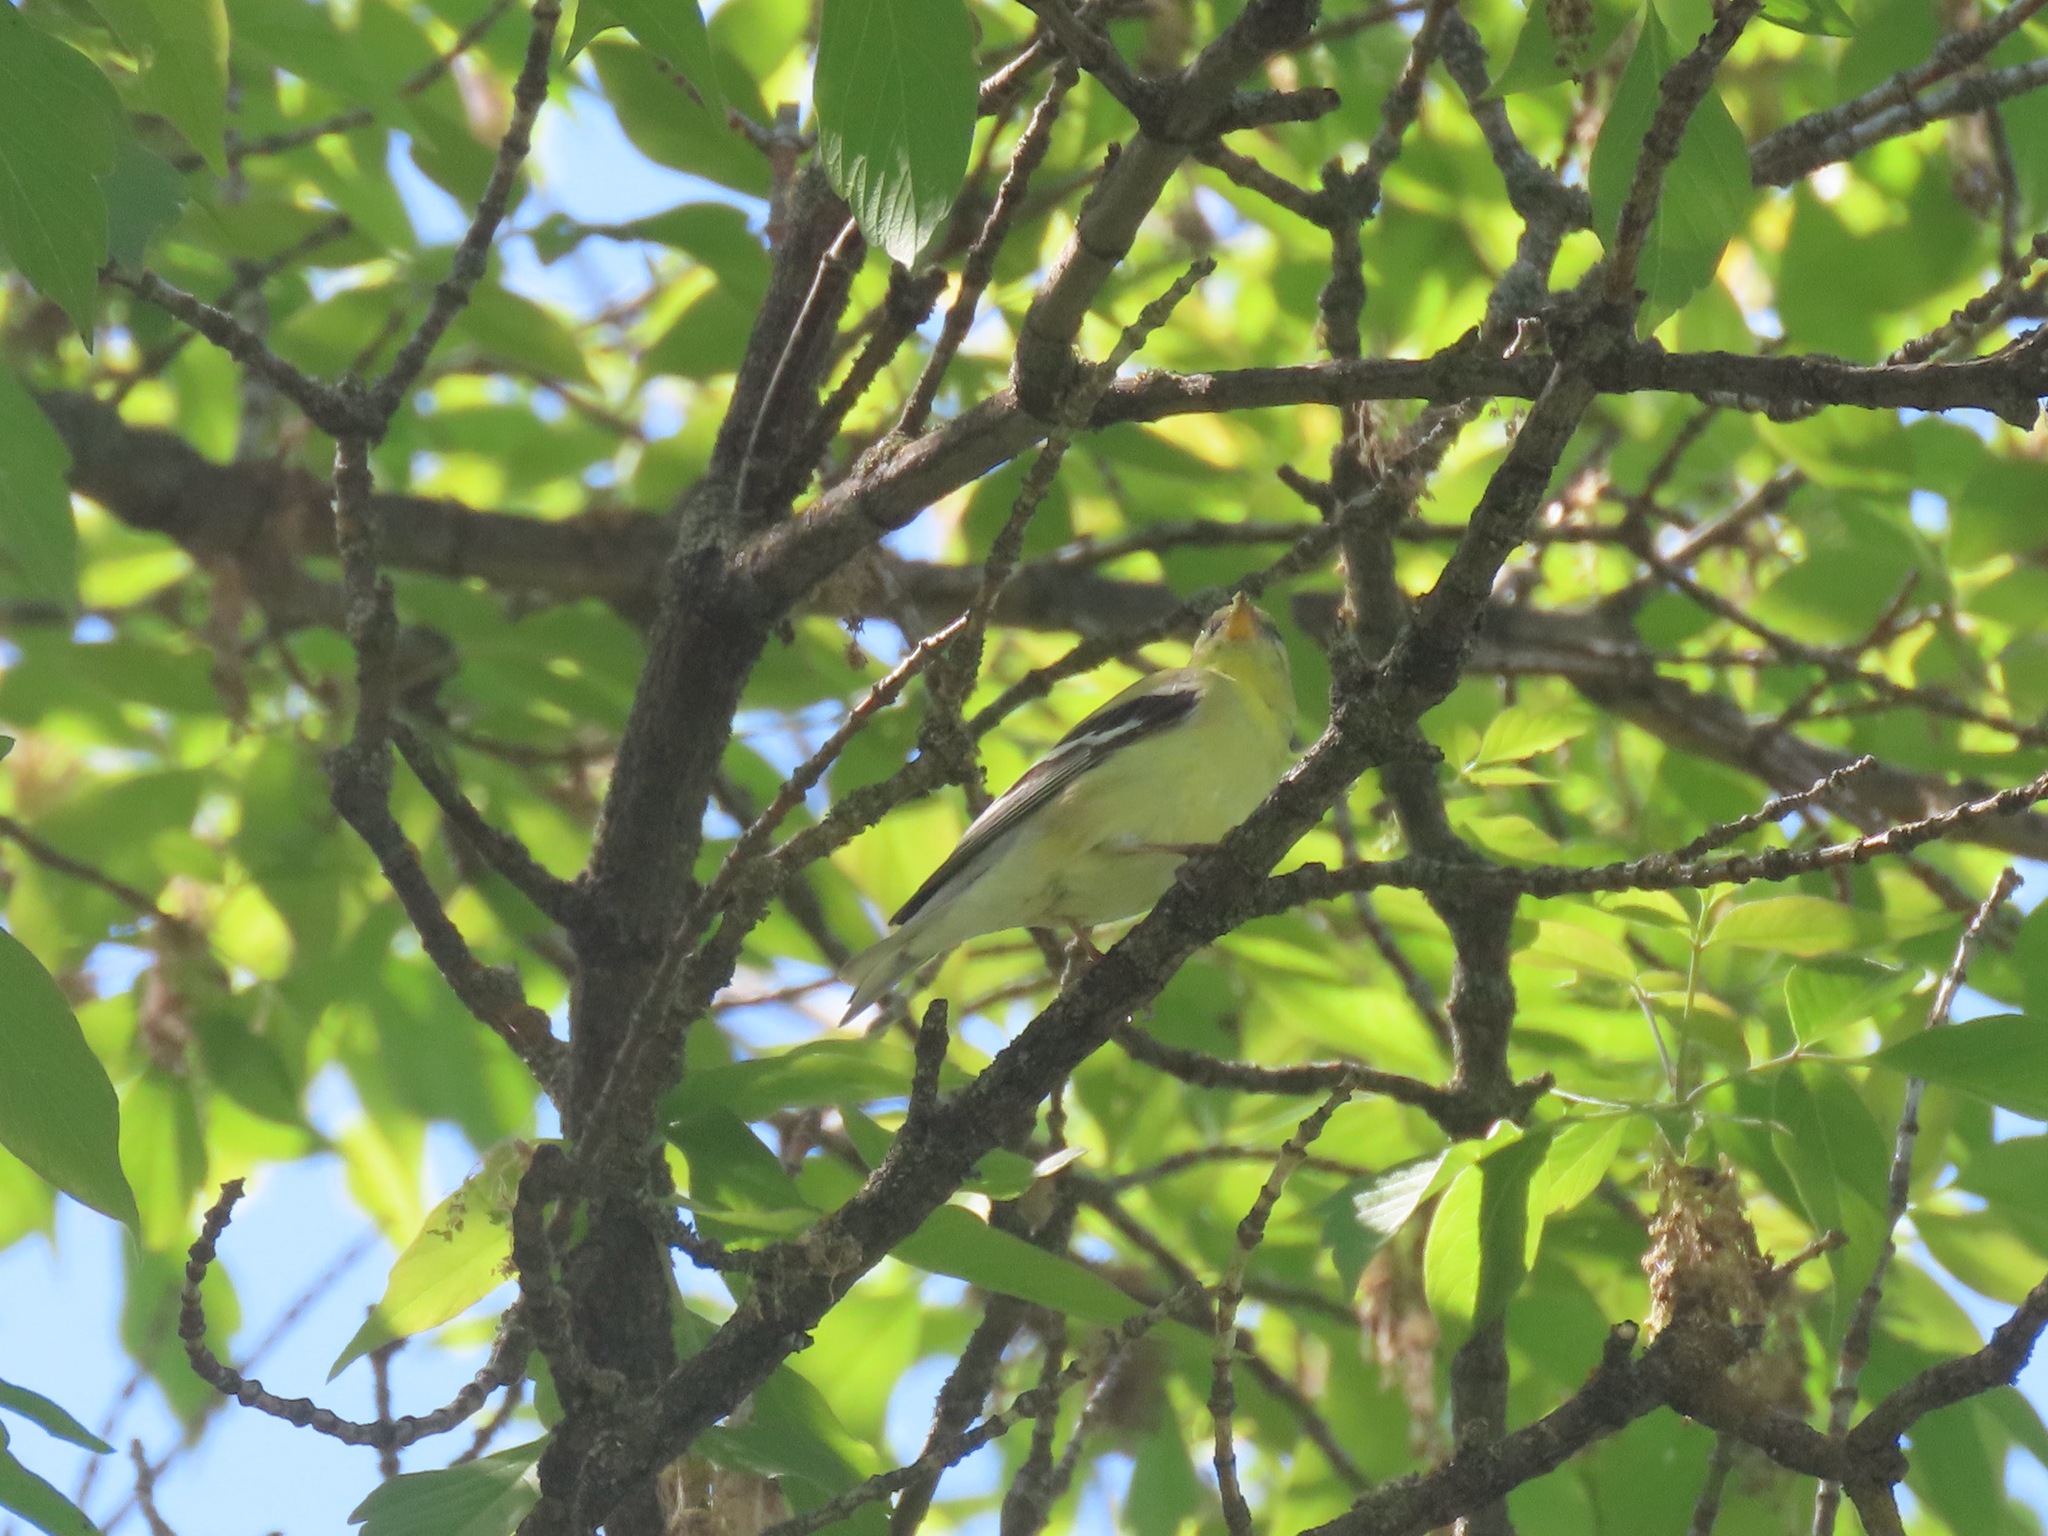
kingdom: Animalia
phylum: Chordata
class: Aves
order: Passeriformes
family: Fringillidae
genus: Spinus
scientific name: Spinus tristis
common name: American goldfinch
